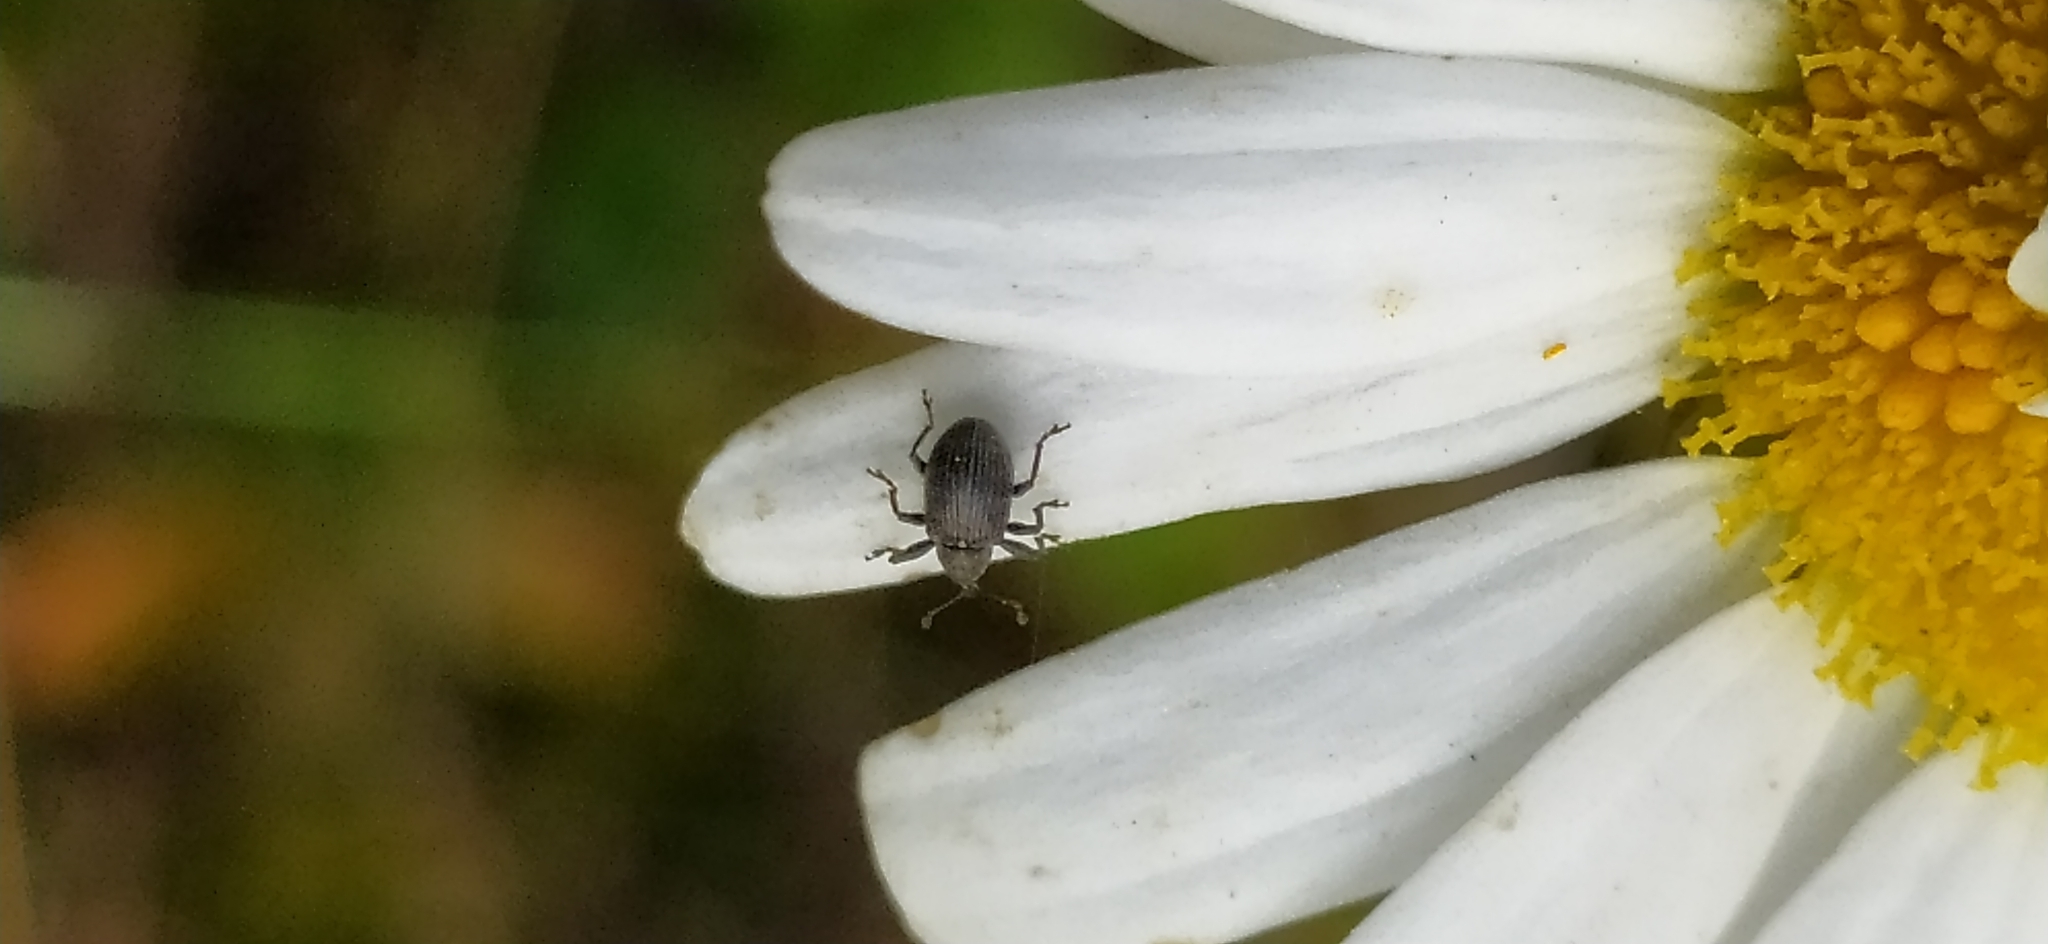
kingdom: Animalia
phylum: Arthropoda
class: Insecta
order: Coleoptera
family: Curculionidae
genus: Anthonomus
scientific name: Anthonomus rubi
